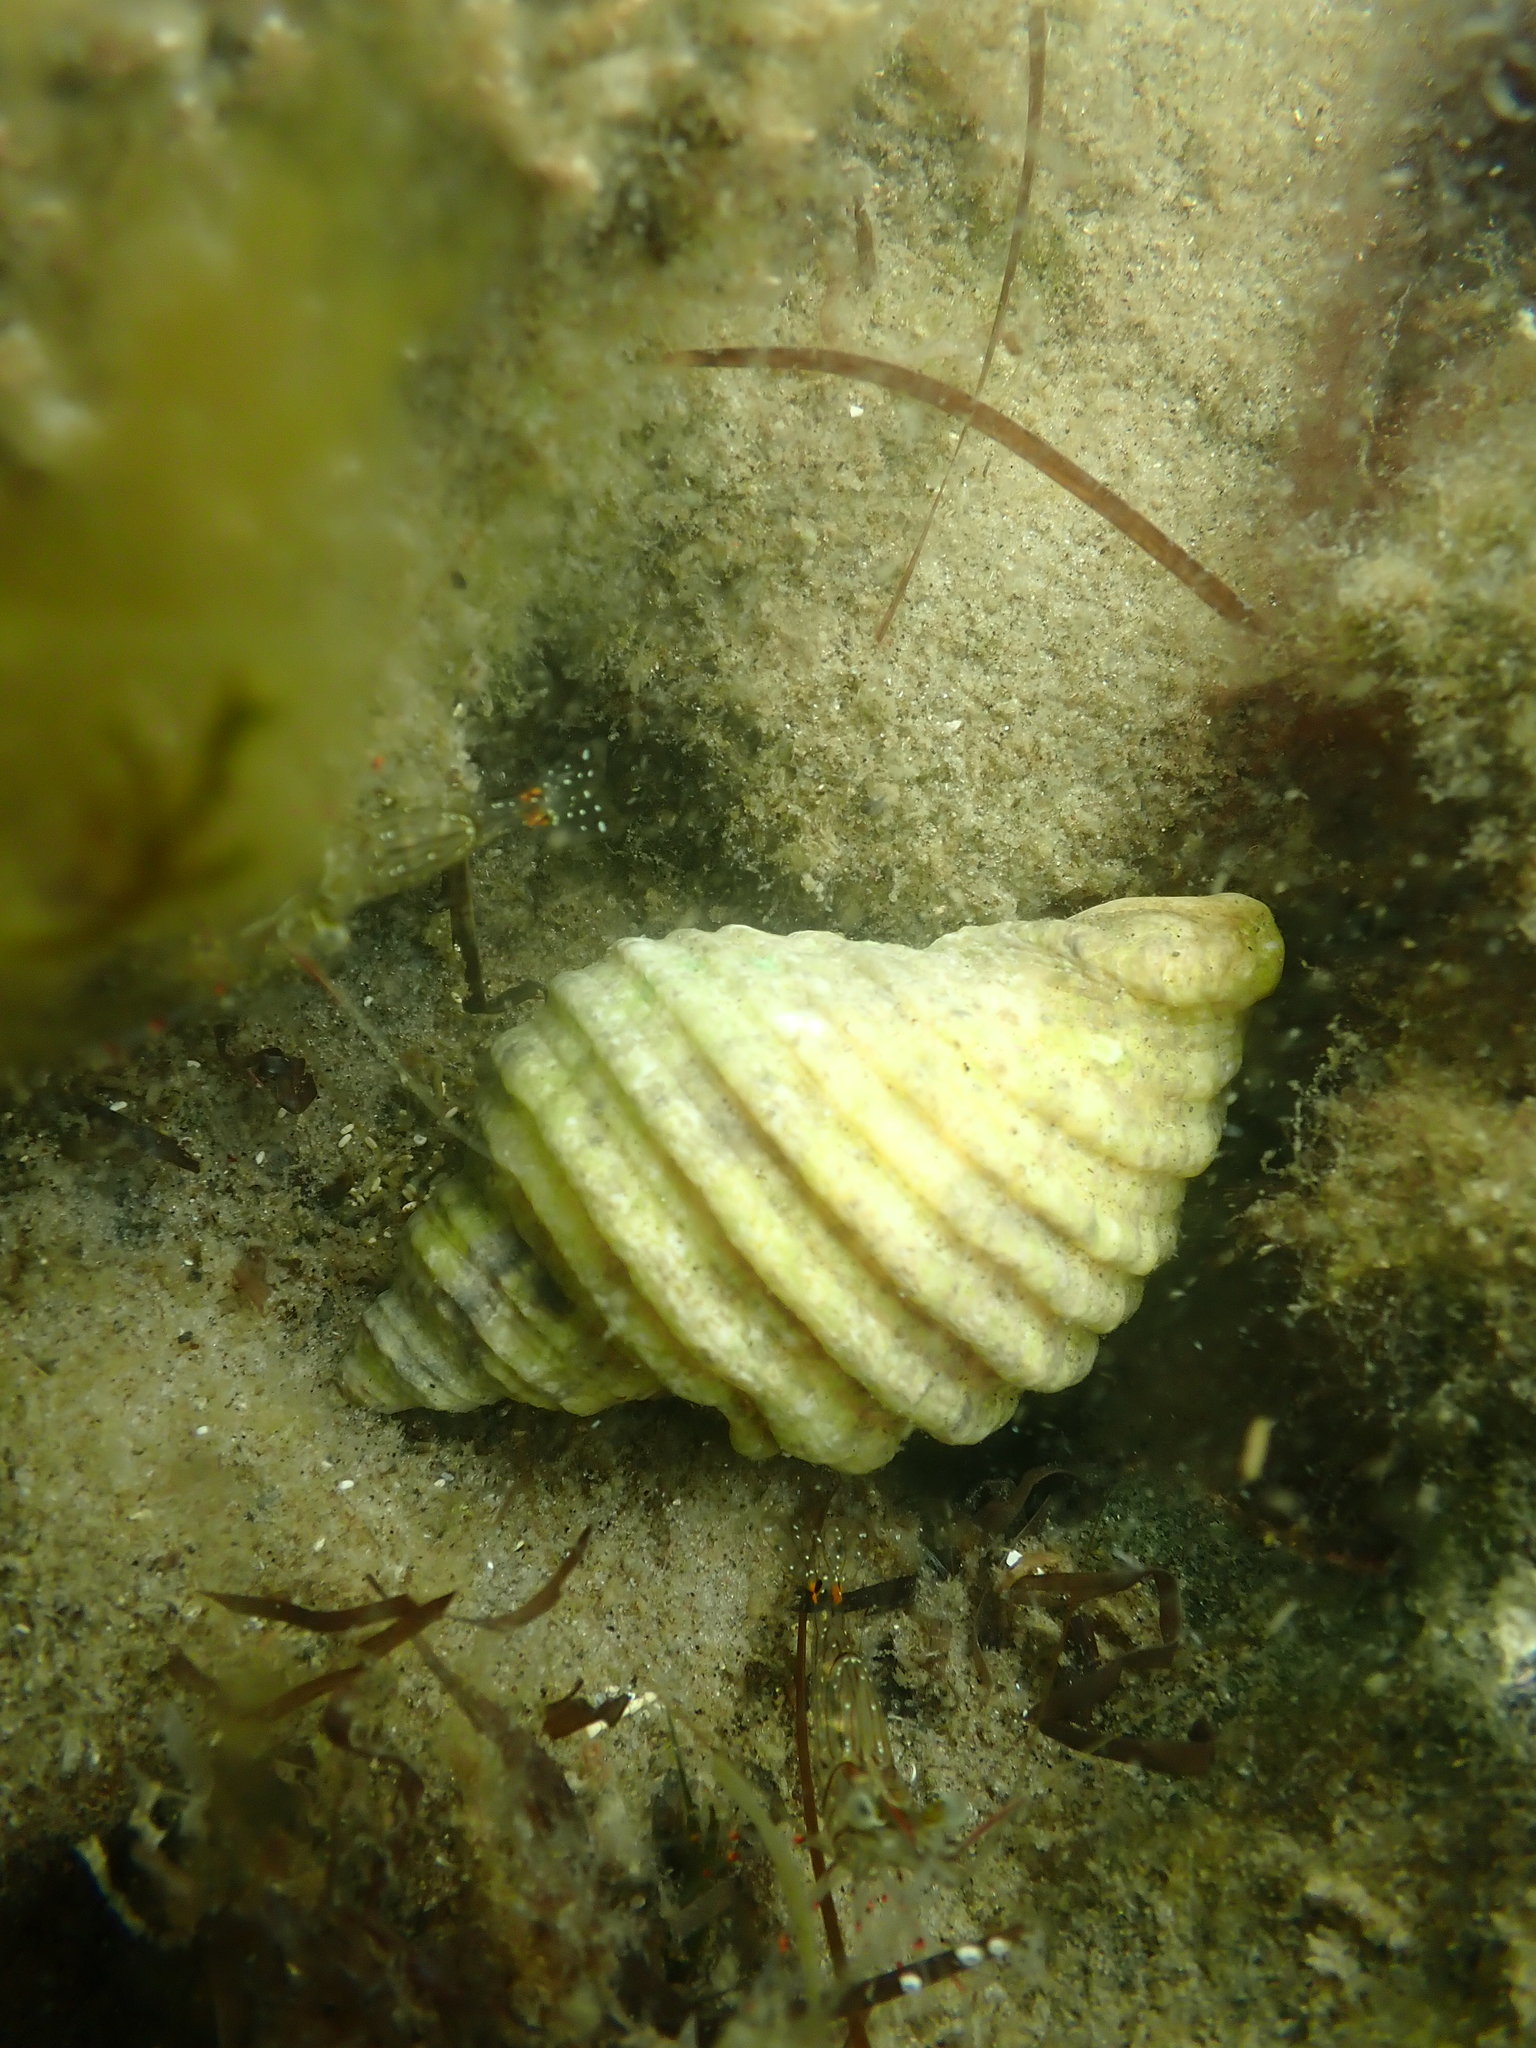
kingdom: Animalia
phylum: Mollusca
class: Gastropoda
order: Neogastropoda
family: Muricidae
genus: Dicathais
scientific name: Dicathais orbita
